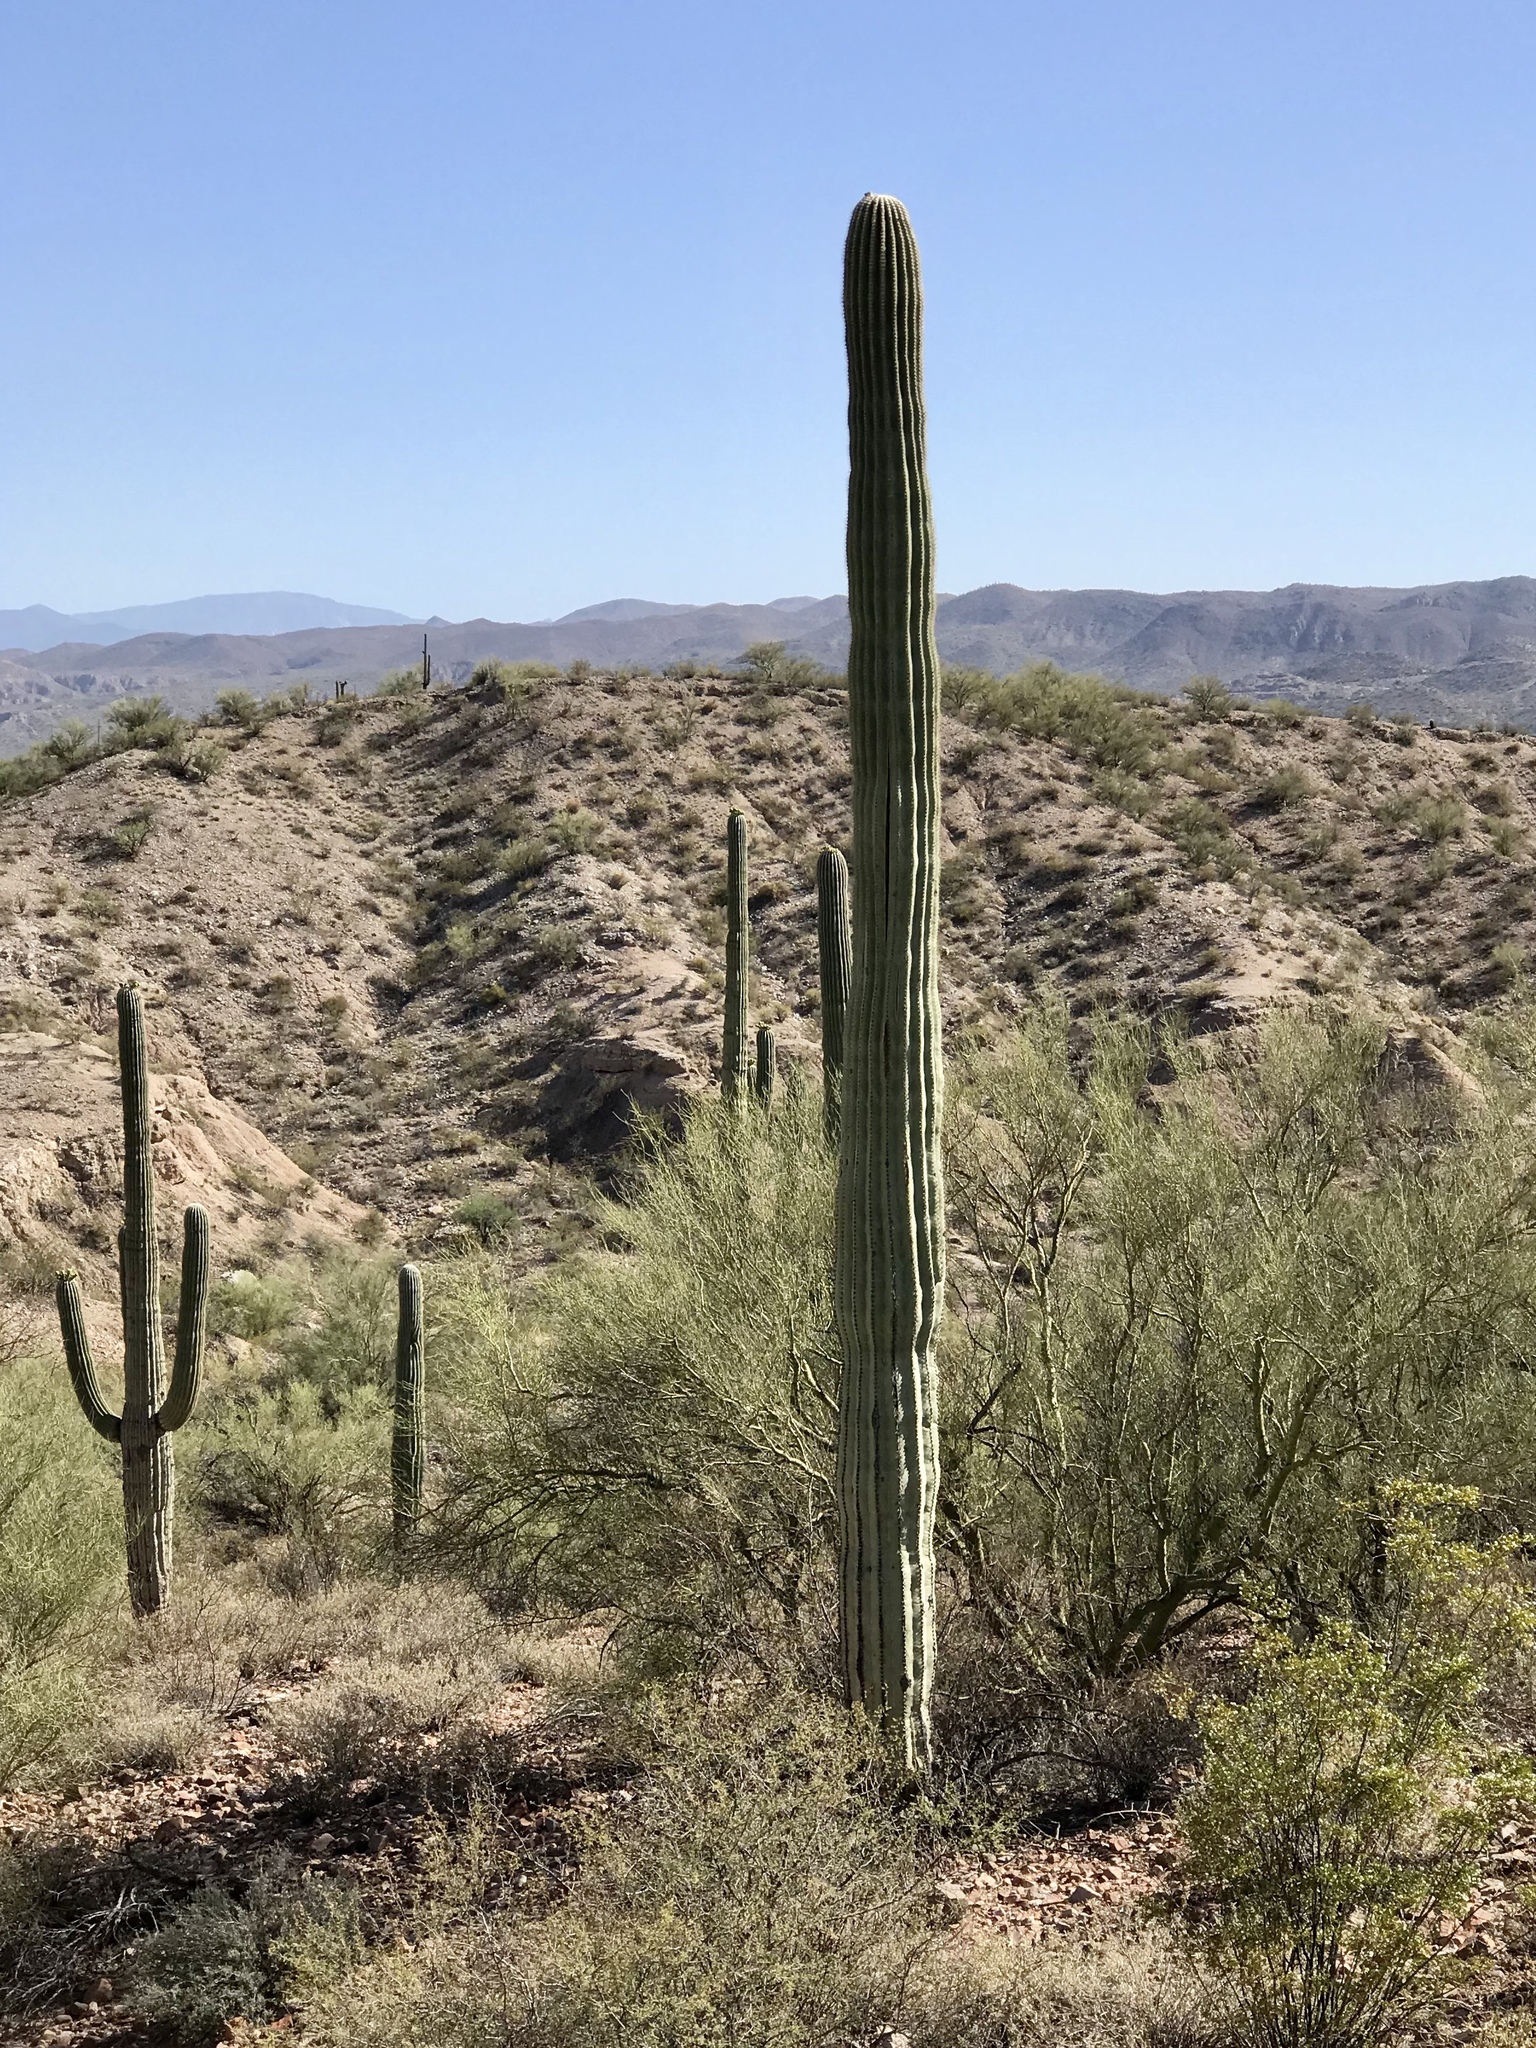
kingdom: Plantae
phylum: Tracheophyta
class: Magnoliopsida
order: Caryophyllales
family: Cactaceae
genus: Carnegiea
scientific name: Carnegiea gigantea
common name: Saguaro
